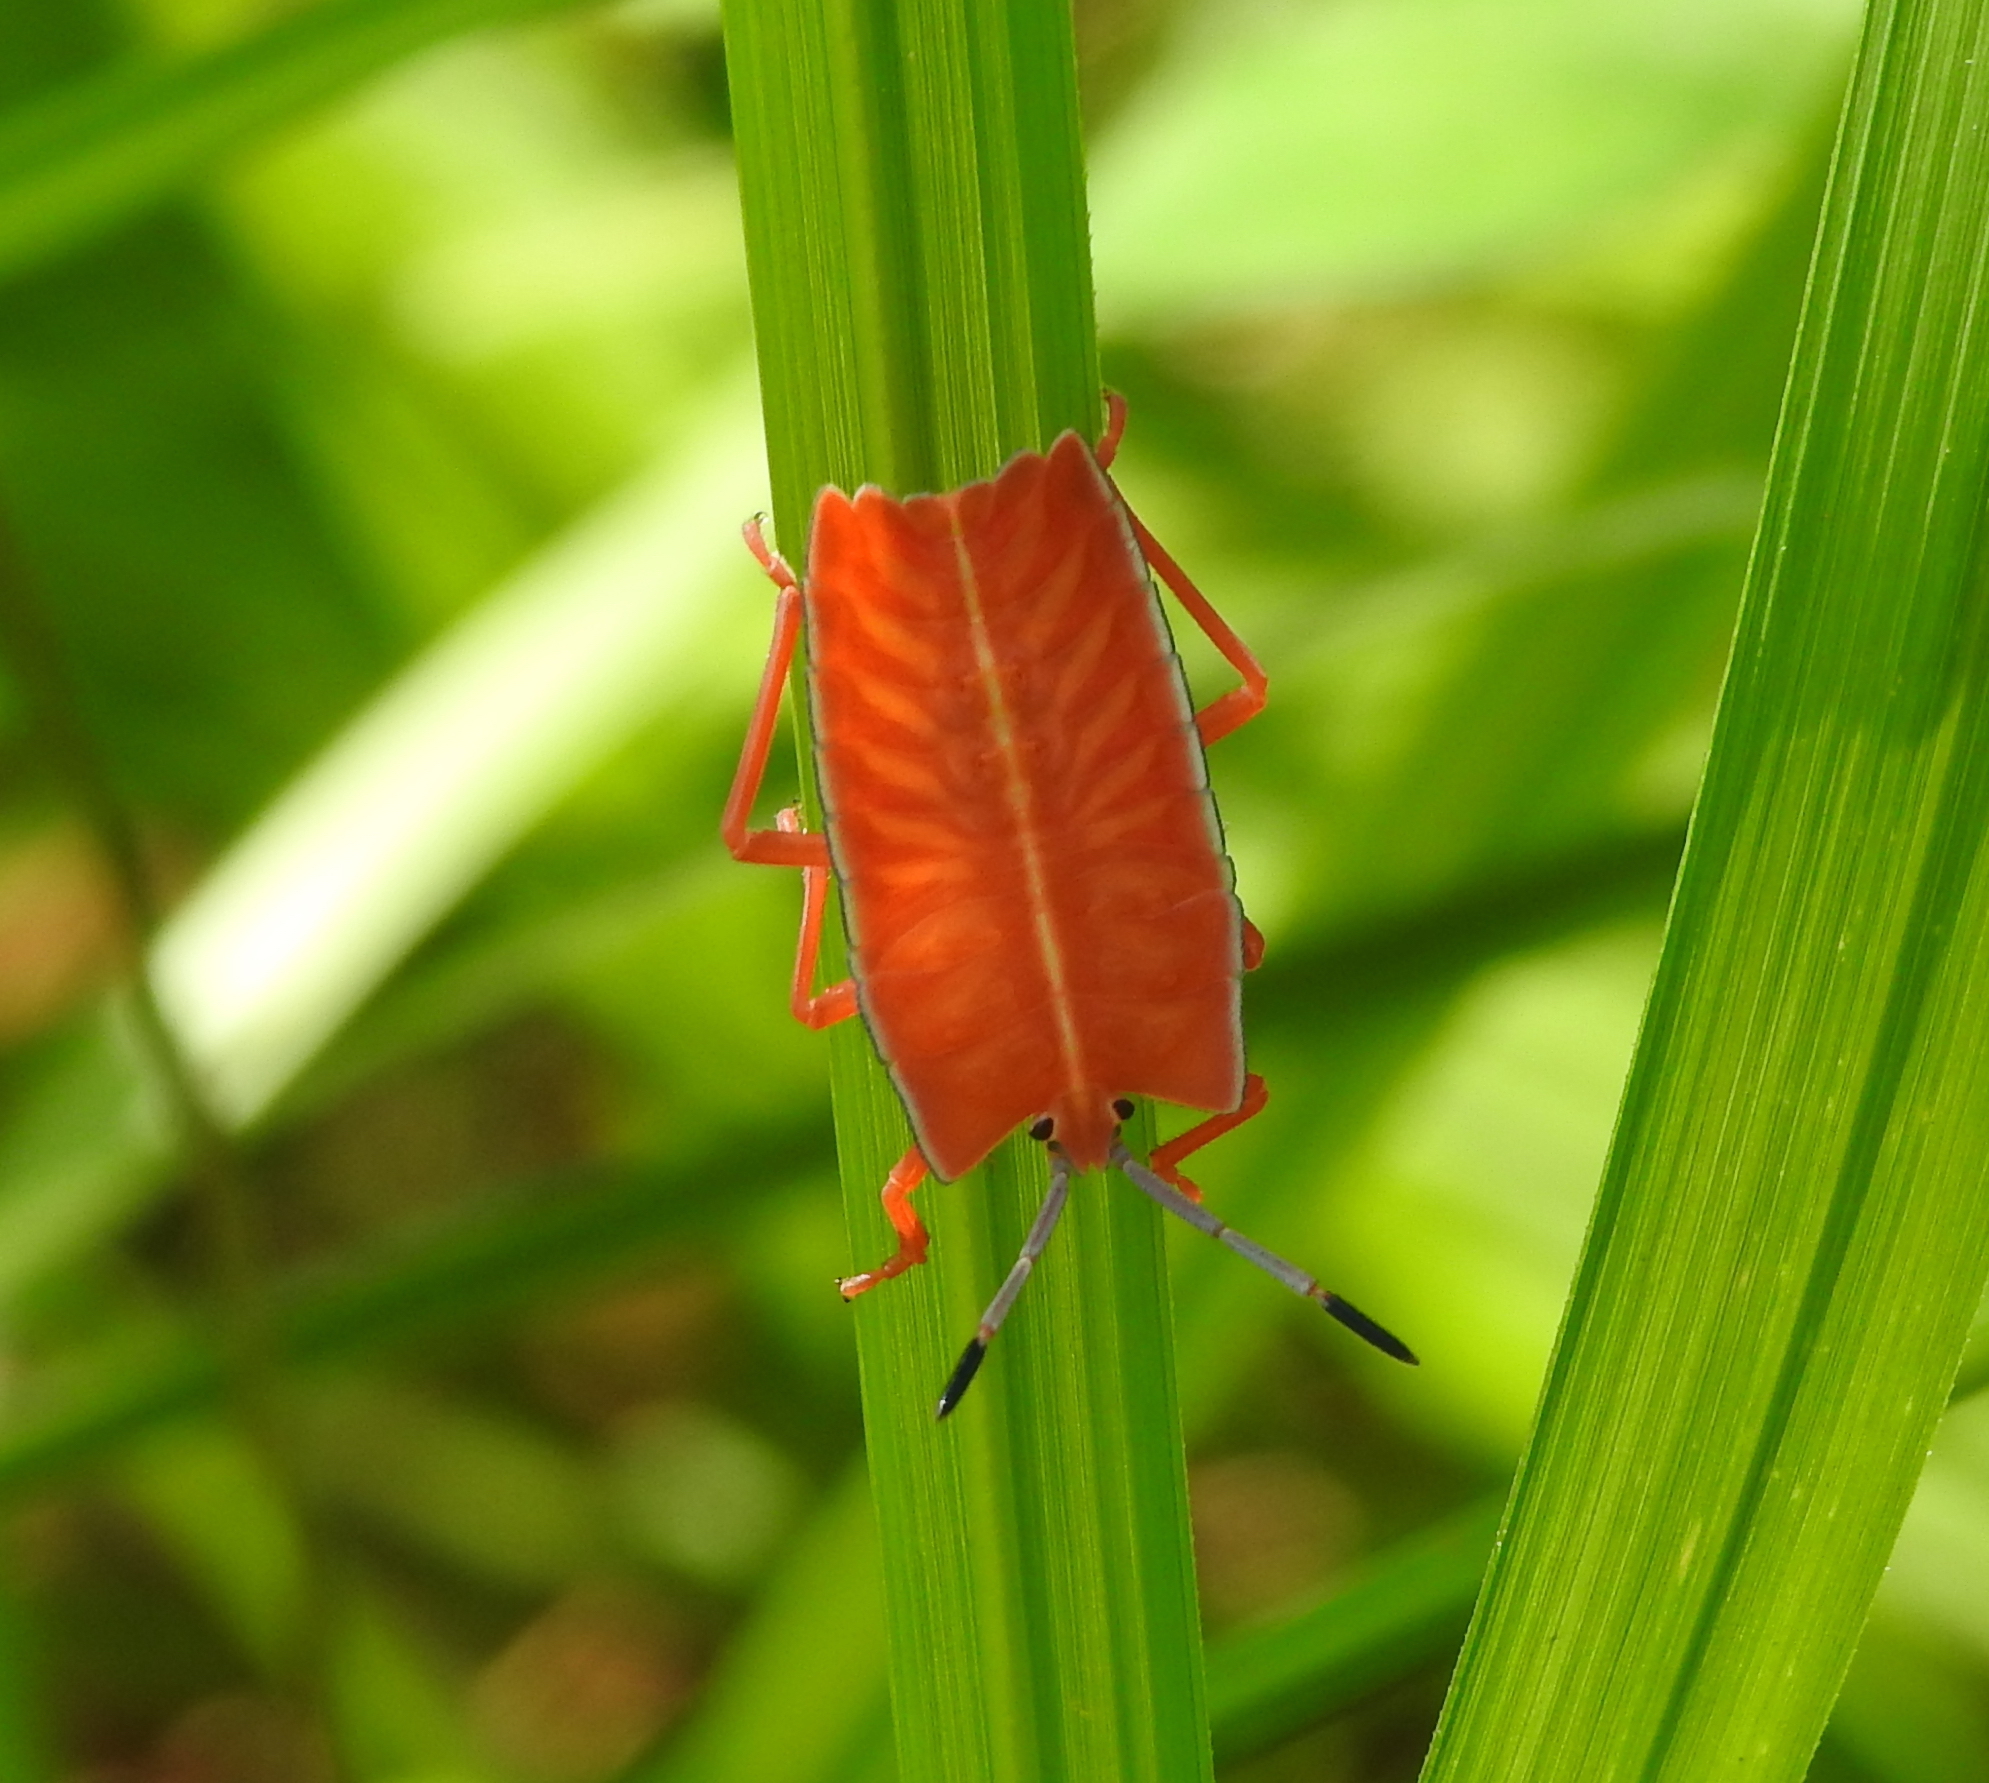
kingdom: Animalia
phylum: Arthropoda
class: Insecta
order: Hemiptera
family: Tessaratomidae
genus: Pycanum
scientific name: Pycanum alternatum
